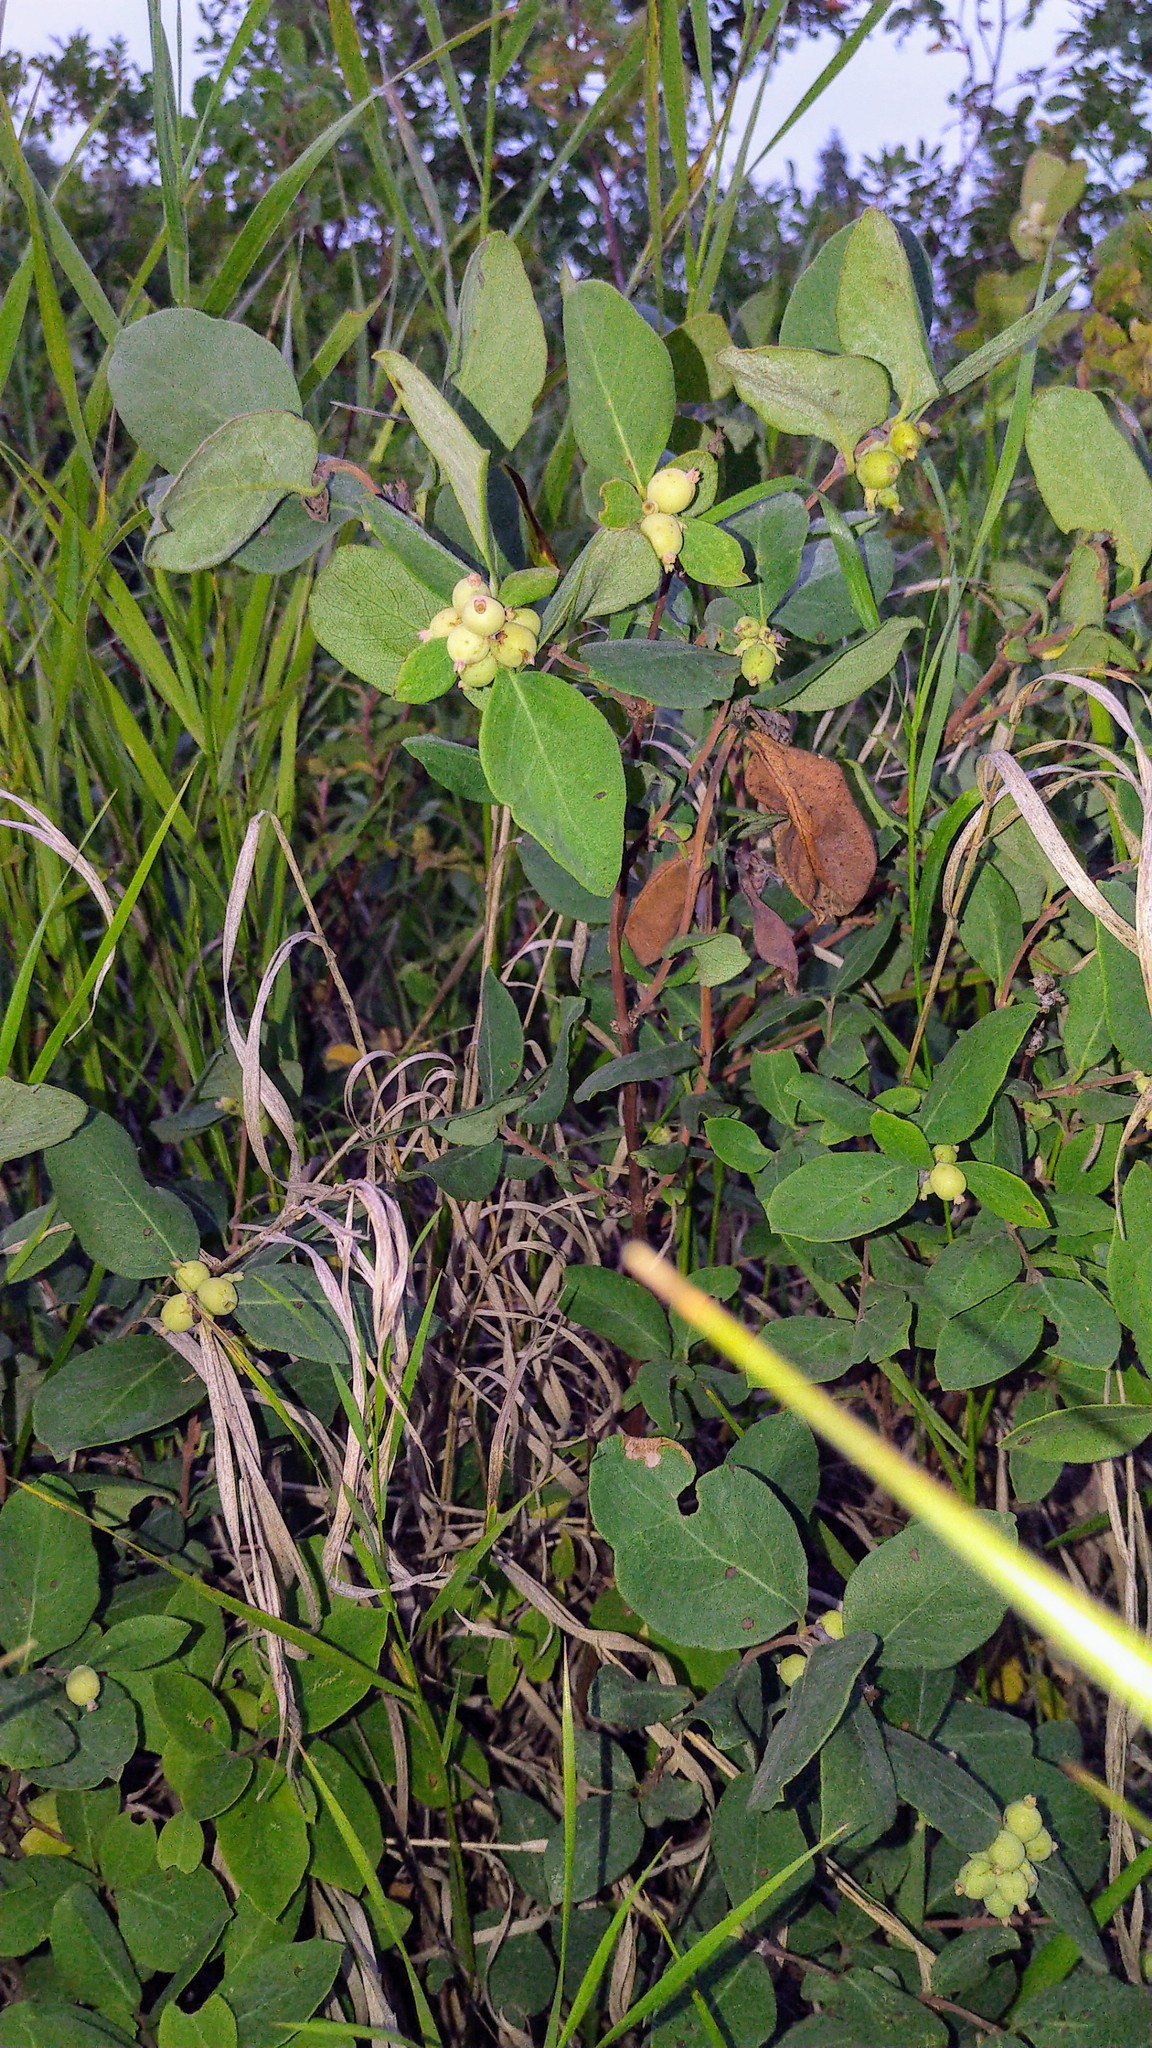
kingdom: Plantae
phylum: Tracheophyta
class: Magnoliopsida
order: Dipsacales
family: Caprifoliaceae
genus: Symphoricarpos
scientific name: Symphoricarpos occidentalis
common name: Wolfberry
